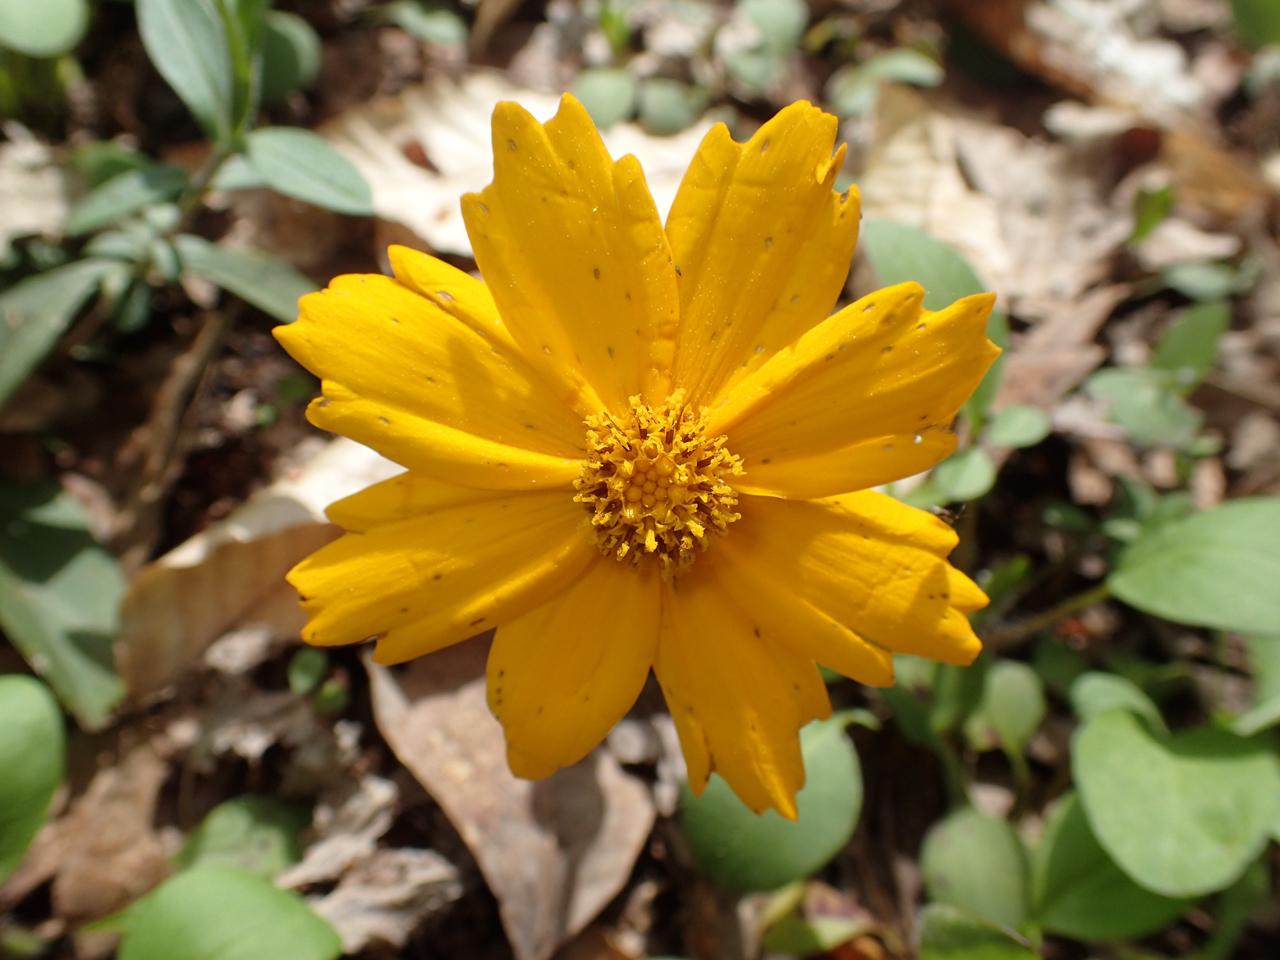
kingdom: Plantae
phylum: Tracheophyta
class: Magnoliopsida
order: Asterales
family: Asteraceae
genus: Coreopsis
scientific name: Coreopsis auriculata
